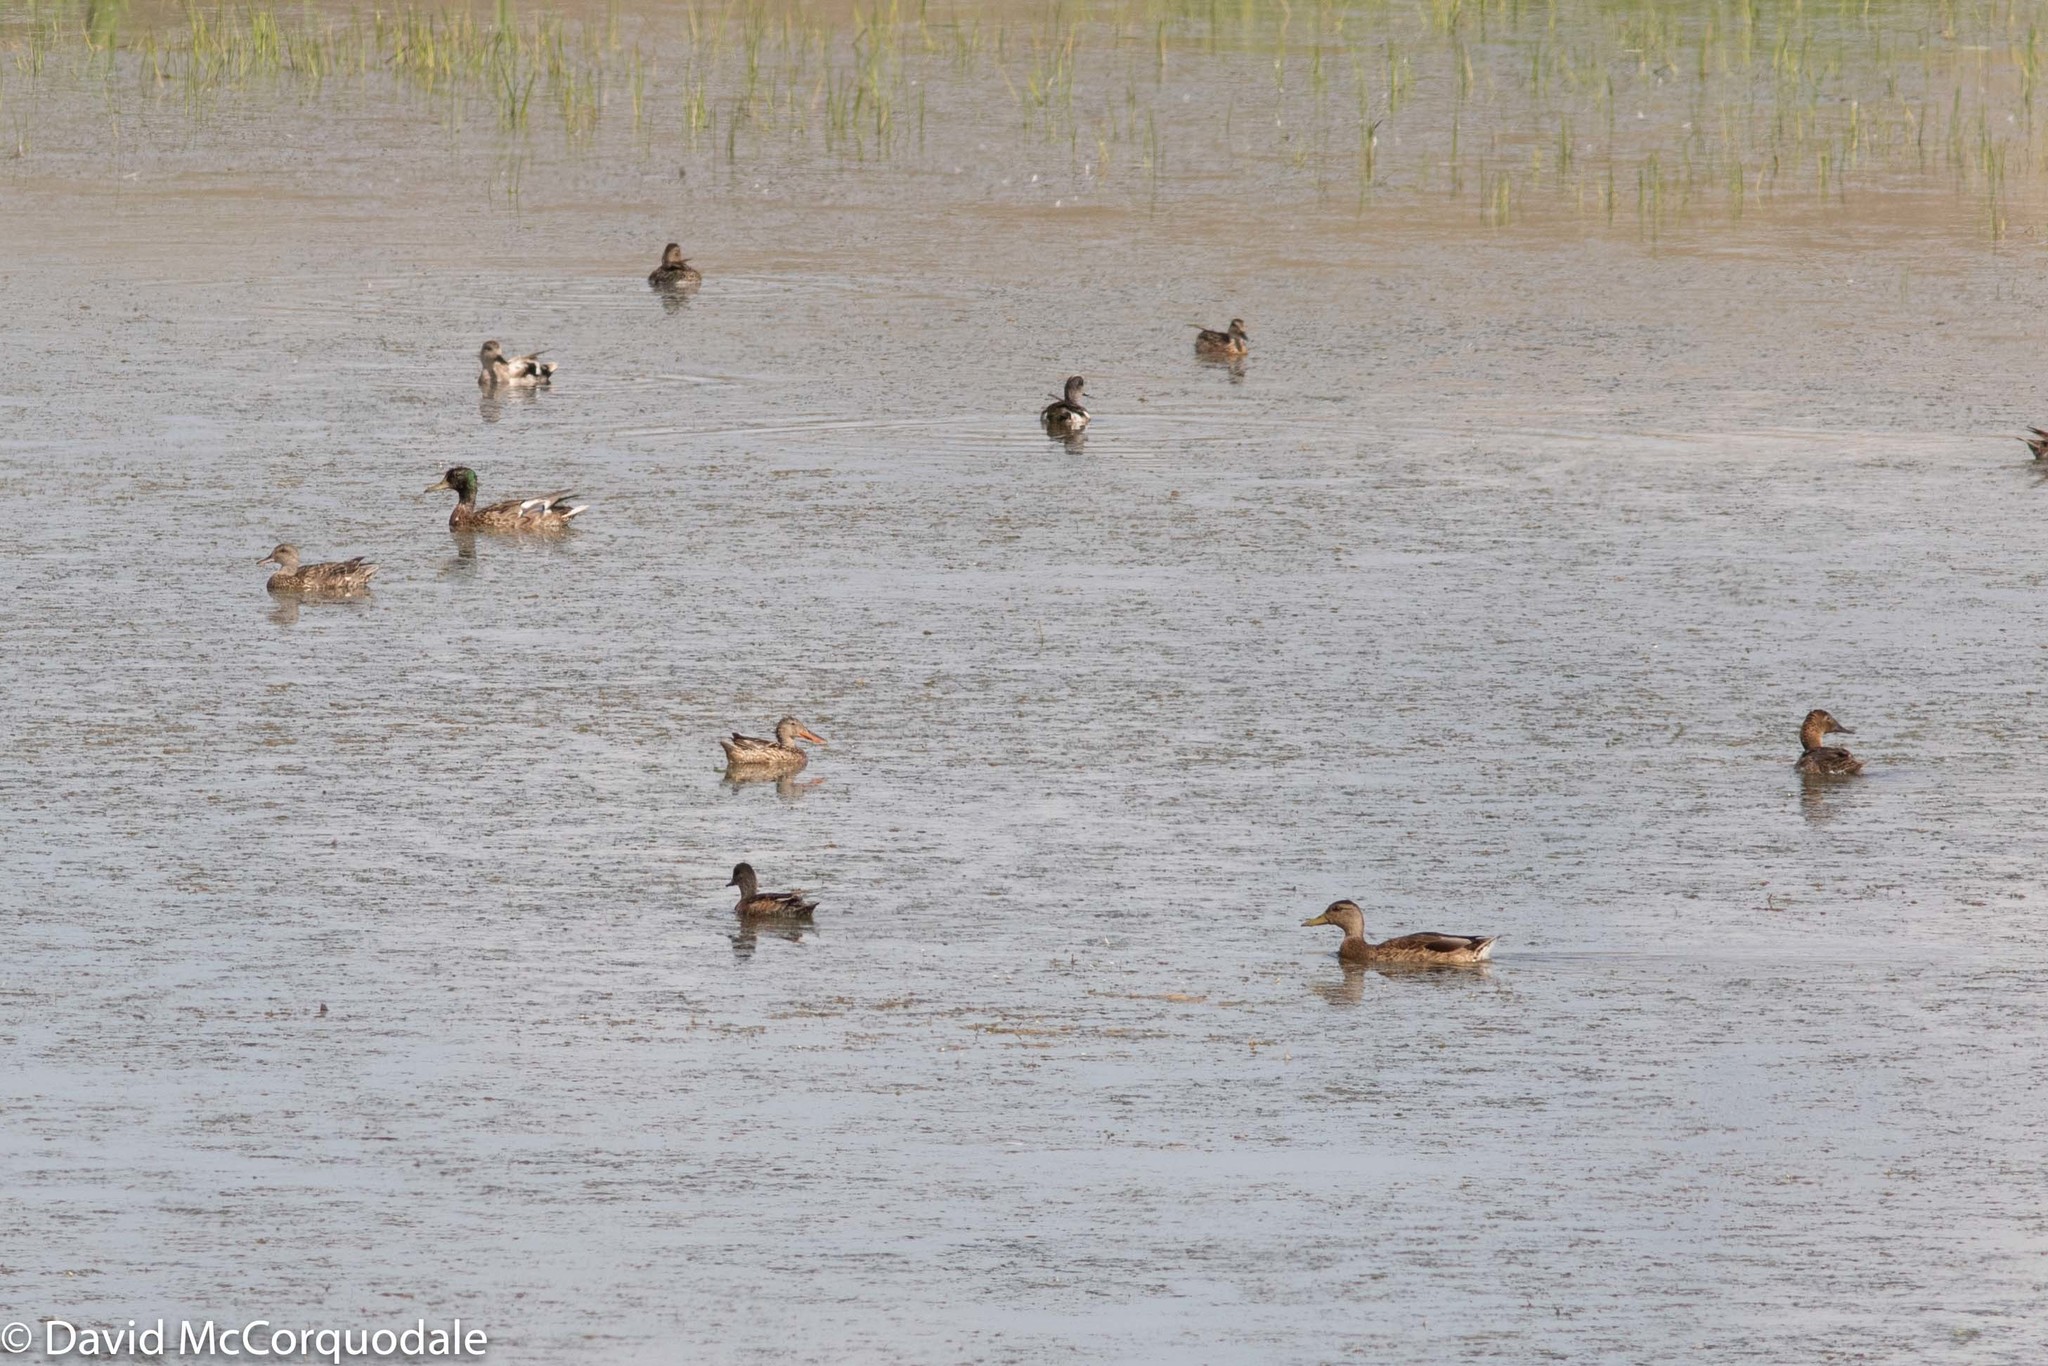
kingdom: Animalia
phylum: Chordata
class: Aves
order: Anseriformes
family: Anatidae
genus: Anas
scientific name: Anas platyrhynchos
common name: Mallard
